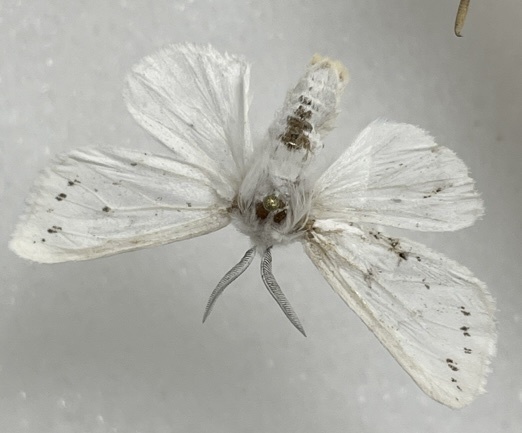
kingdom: Animalia
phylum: Arthropoda
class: Insecta
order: Lepidoptera
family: Erebidae
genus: Spilosoma
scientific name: Spilosoma congrua
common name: Agreeable tiger moth
